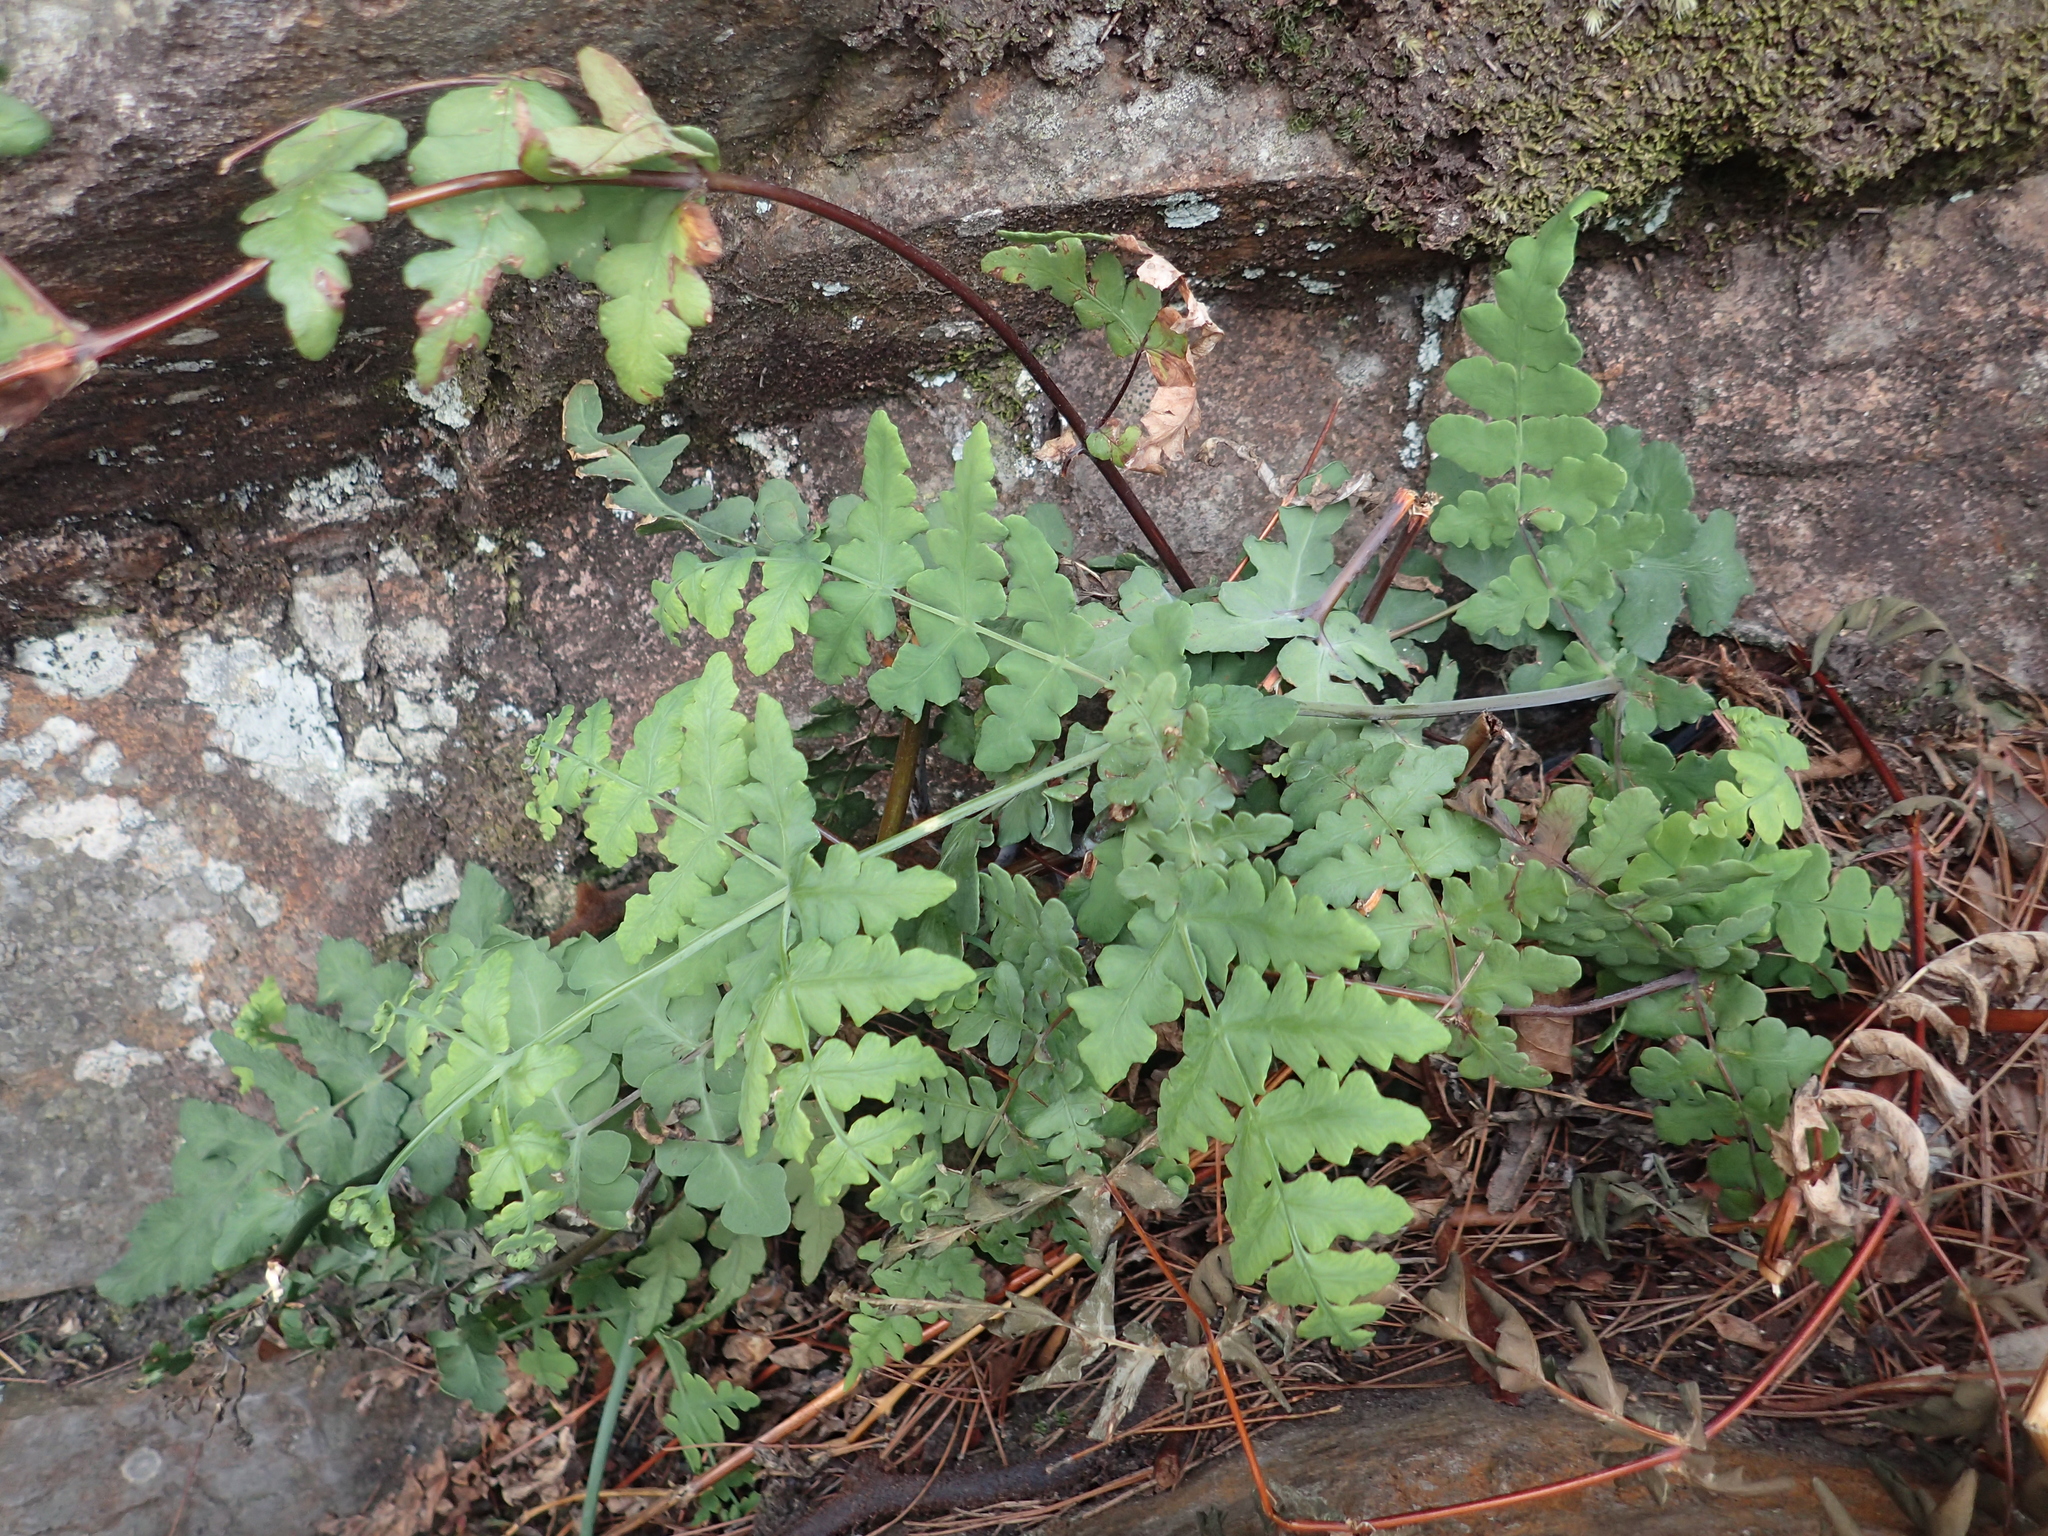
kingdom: Plantae
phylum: Tracheophyta
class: Polypodiopsida
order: Polypodiales
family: Dennstaedtiaceae
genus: Histiopteris
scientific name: Histiopteris incisa
